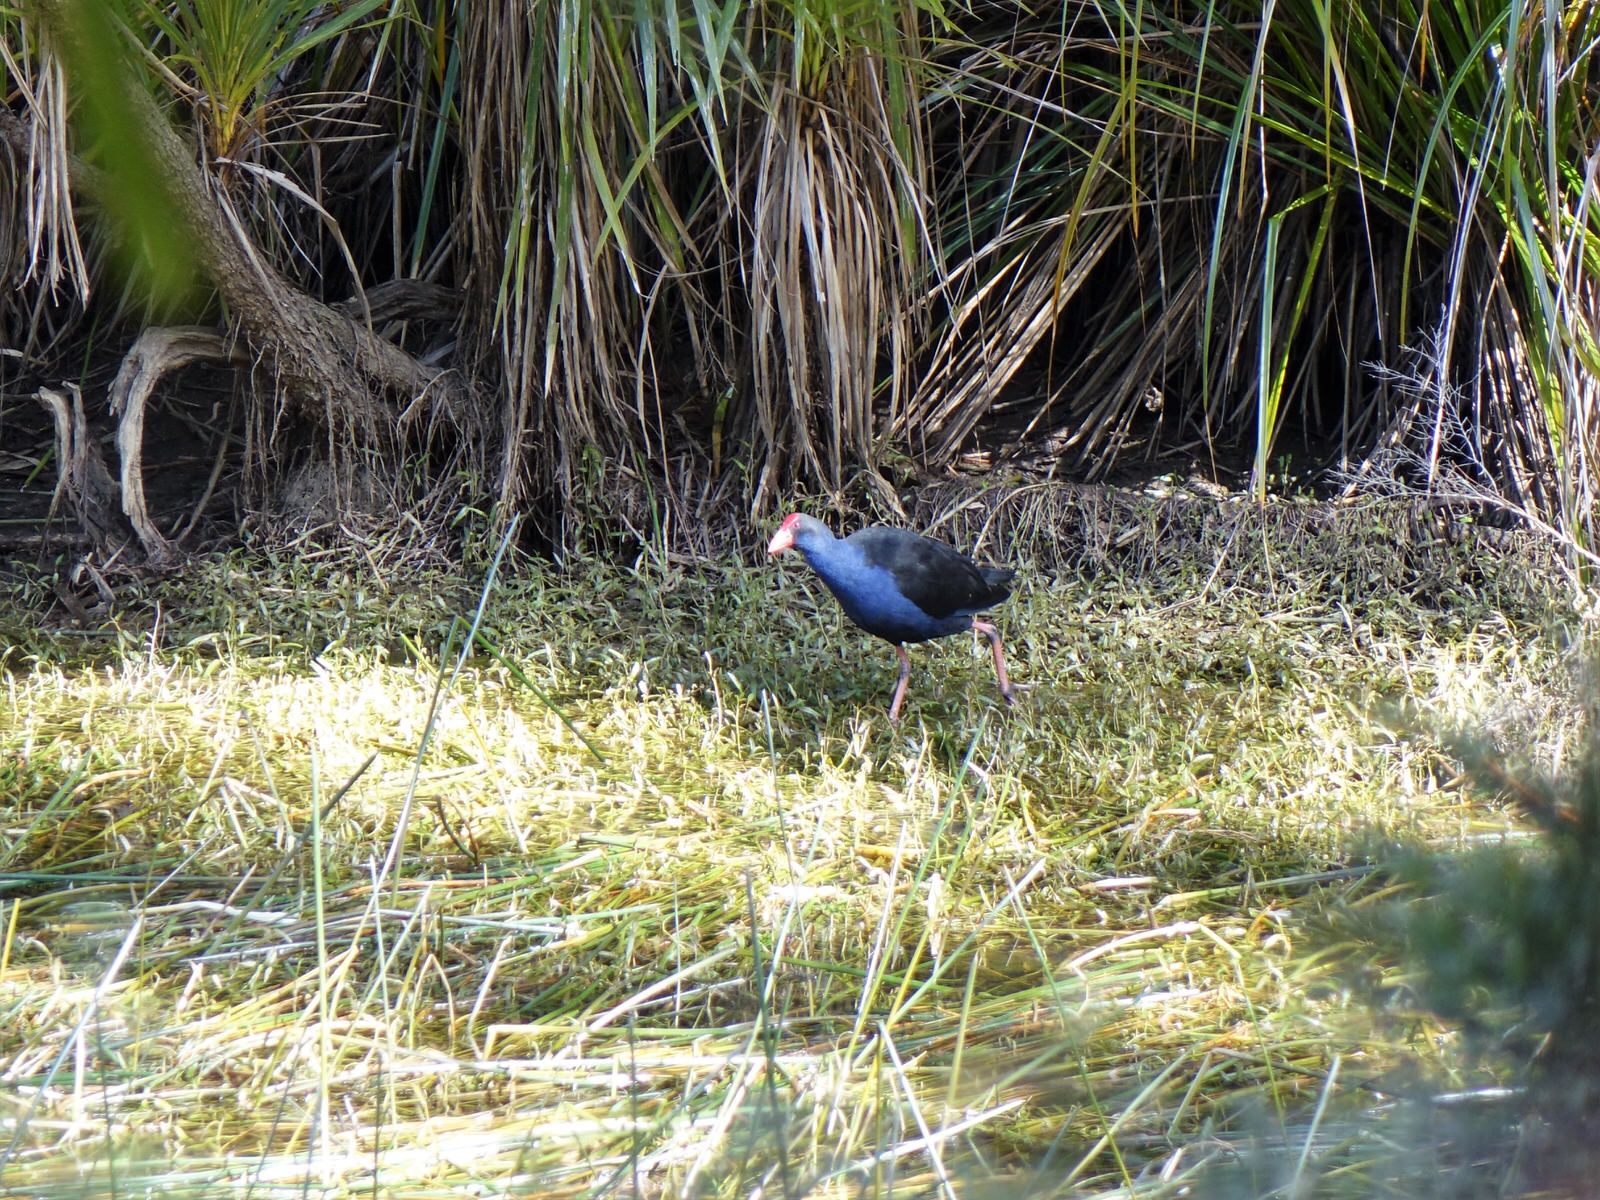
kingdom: Animalia
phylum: Chordata
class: Aves
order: Gruiformes
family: Rallidae
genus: Porphyrio
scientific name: Porphyrio melanotus
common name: Australasian swamphen
